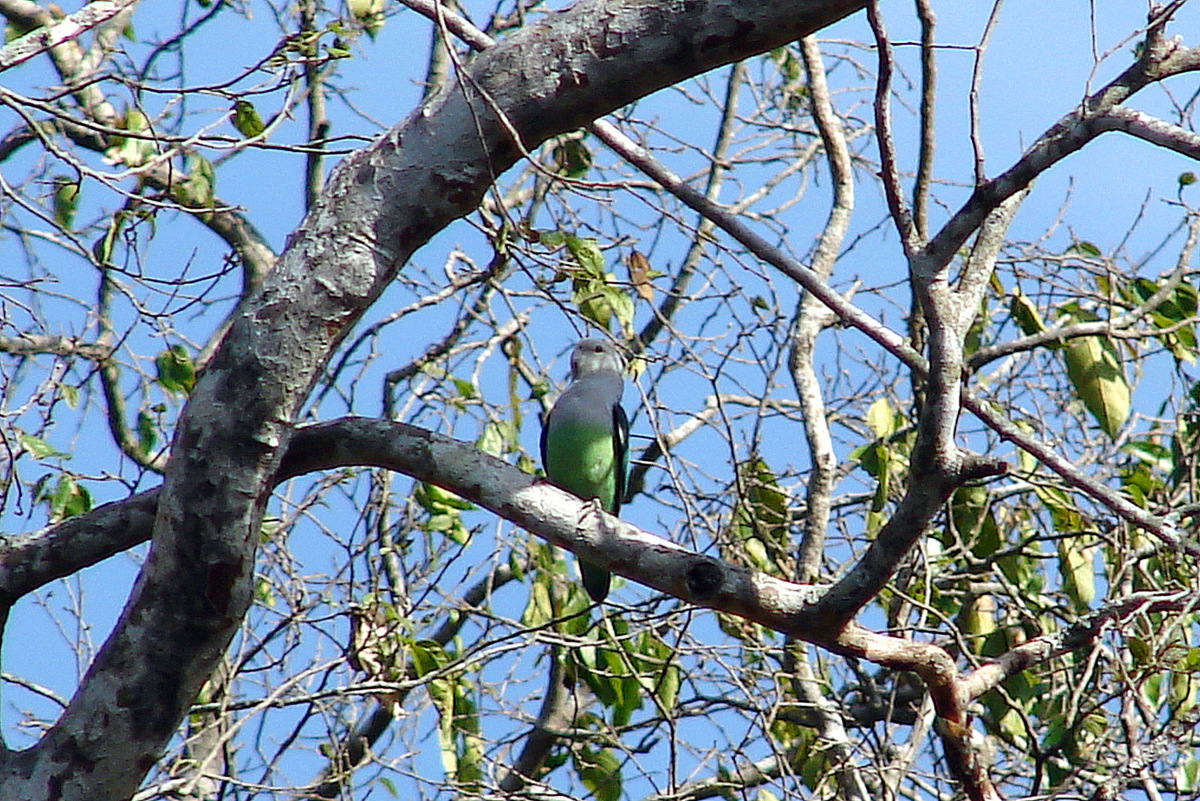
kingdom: Animalia
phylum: Chordata
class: Aves
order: Psittaciformes
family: Psittacidae
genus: Agapornis
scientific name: Agapornis canus
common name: Grey-headed lovebird
